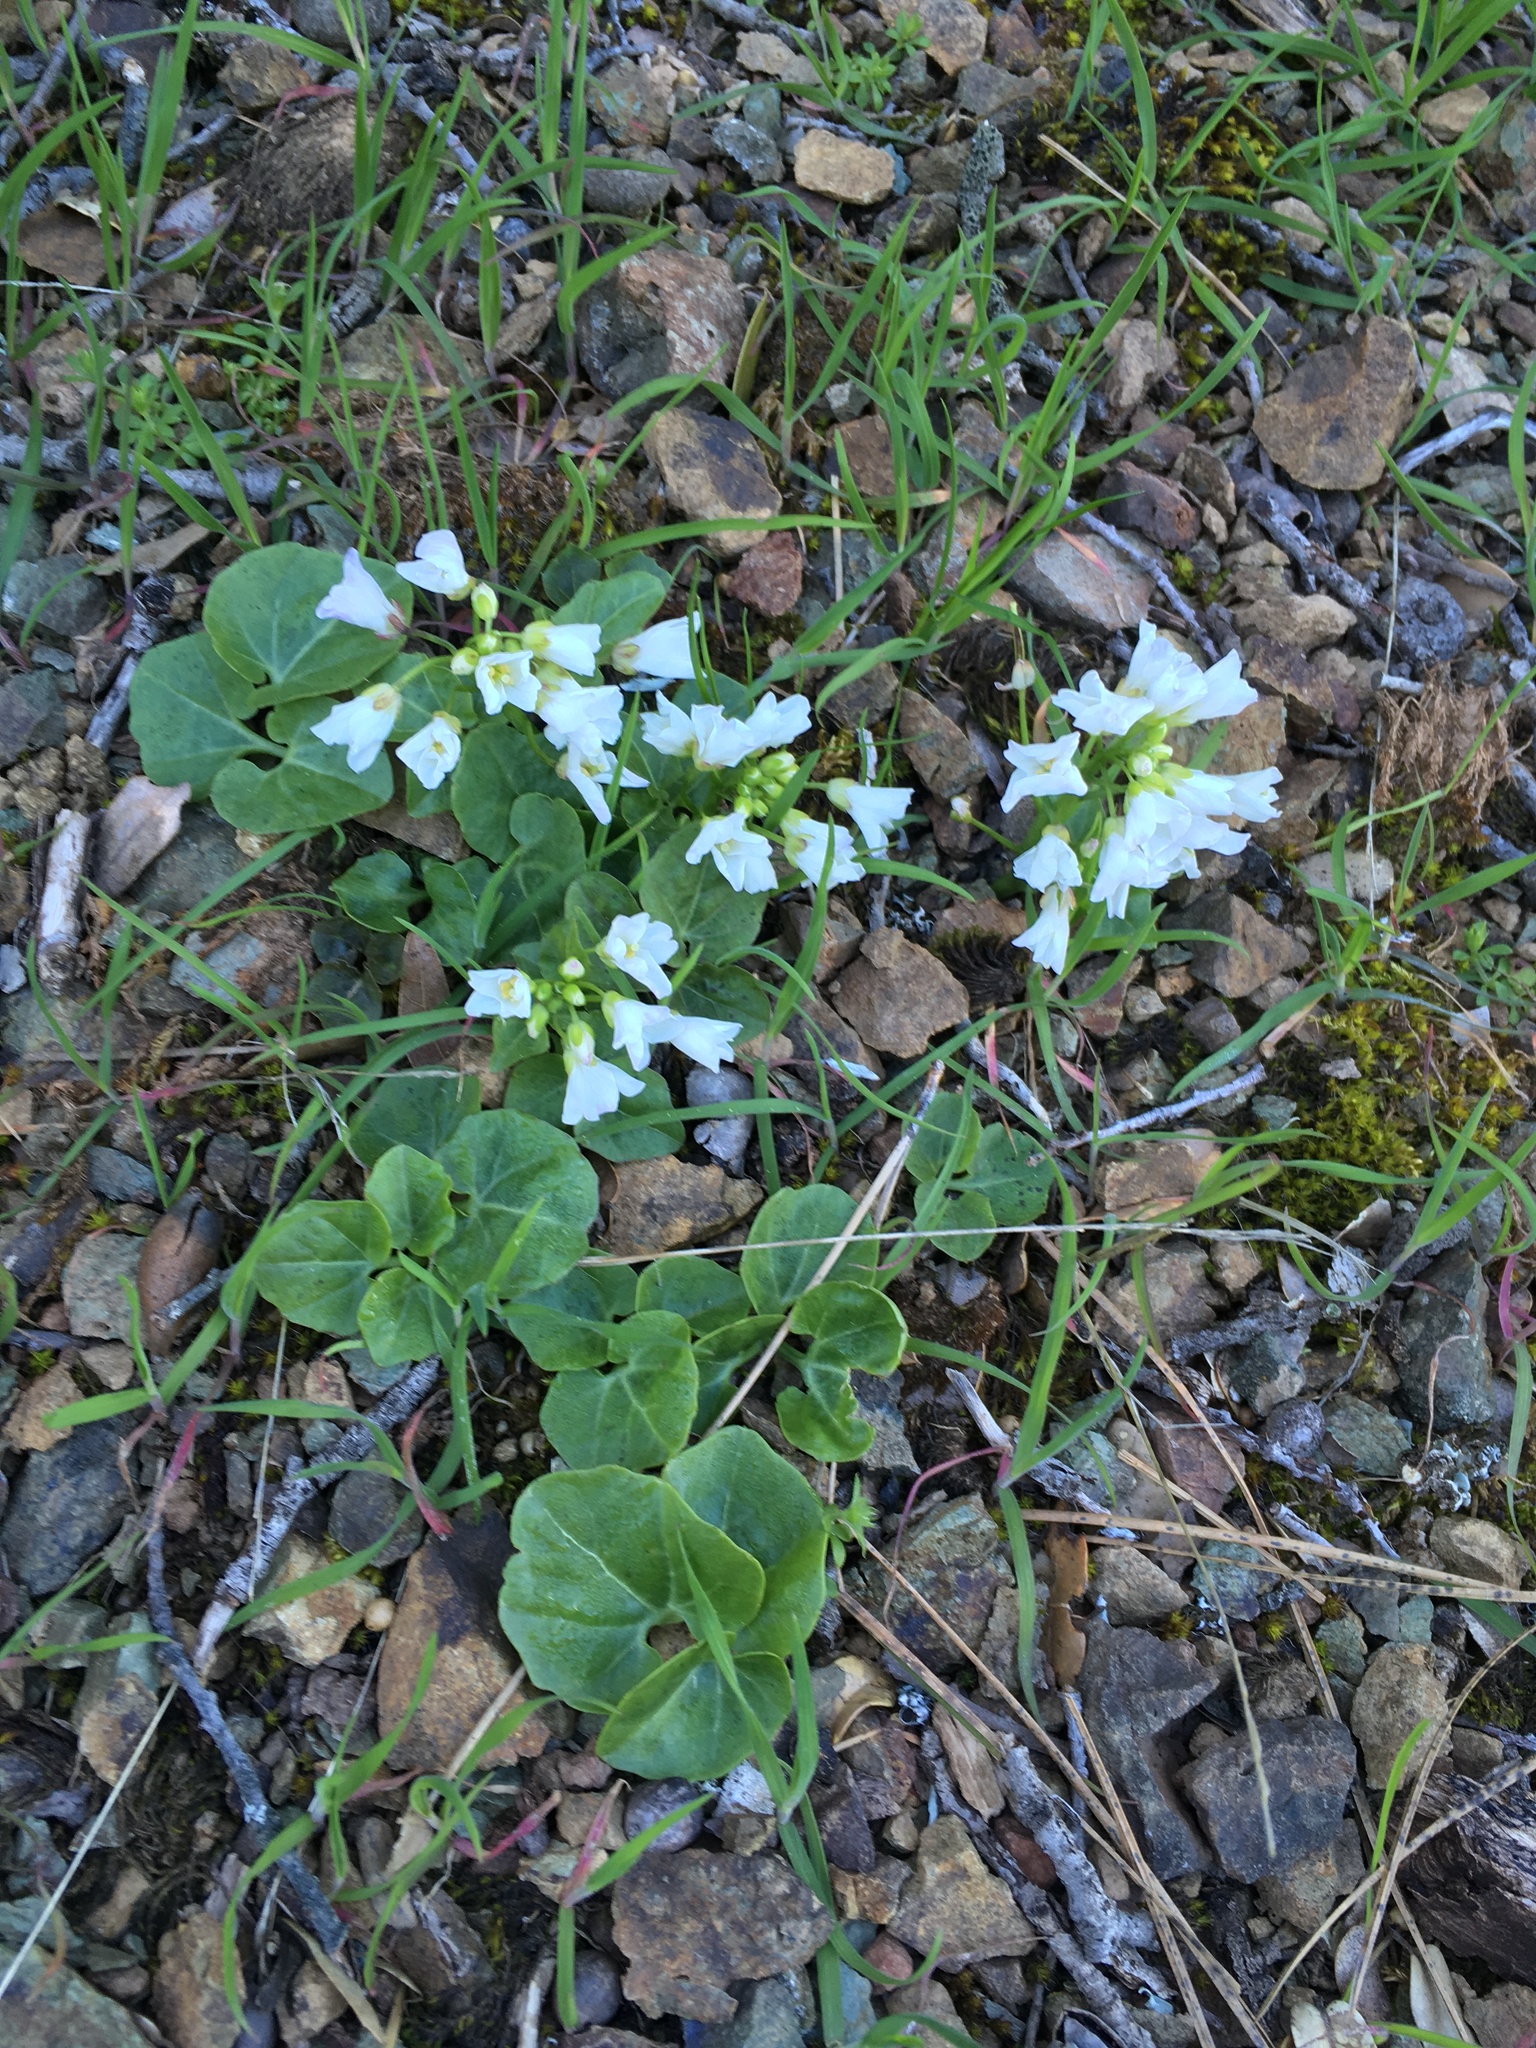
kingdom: Plantae
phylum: Tracheophyta
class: Magnoliopsida
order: Brassicales
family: Brassicaceae
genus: Cardamine
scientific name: Cardamine californica
